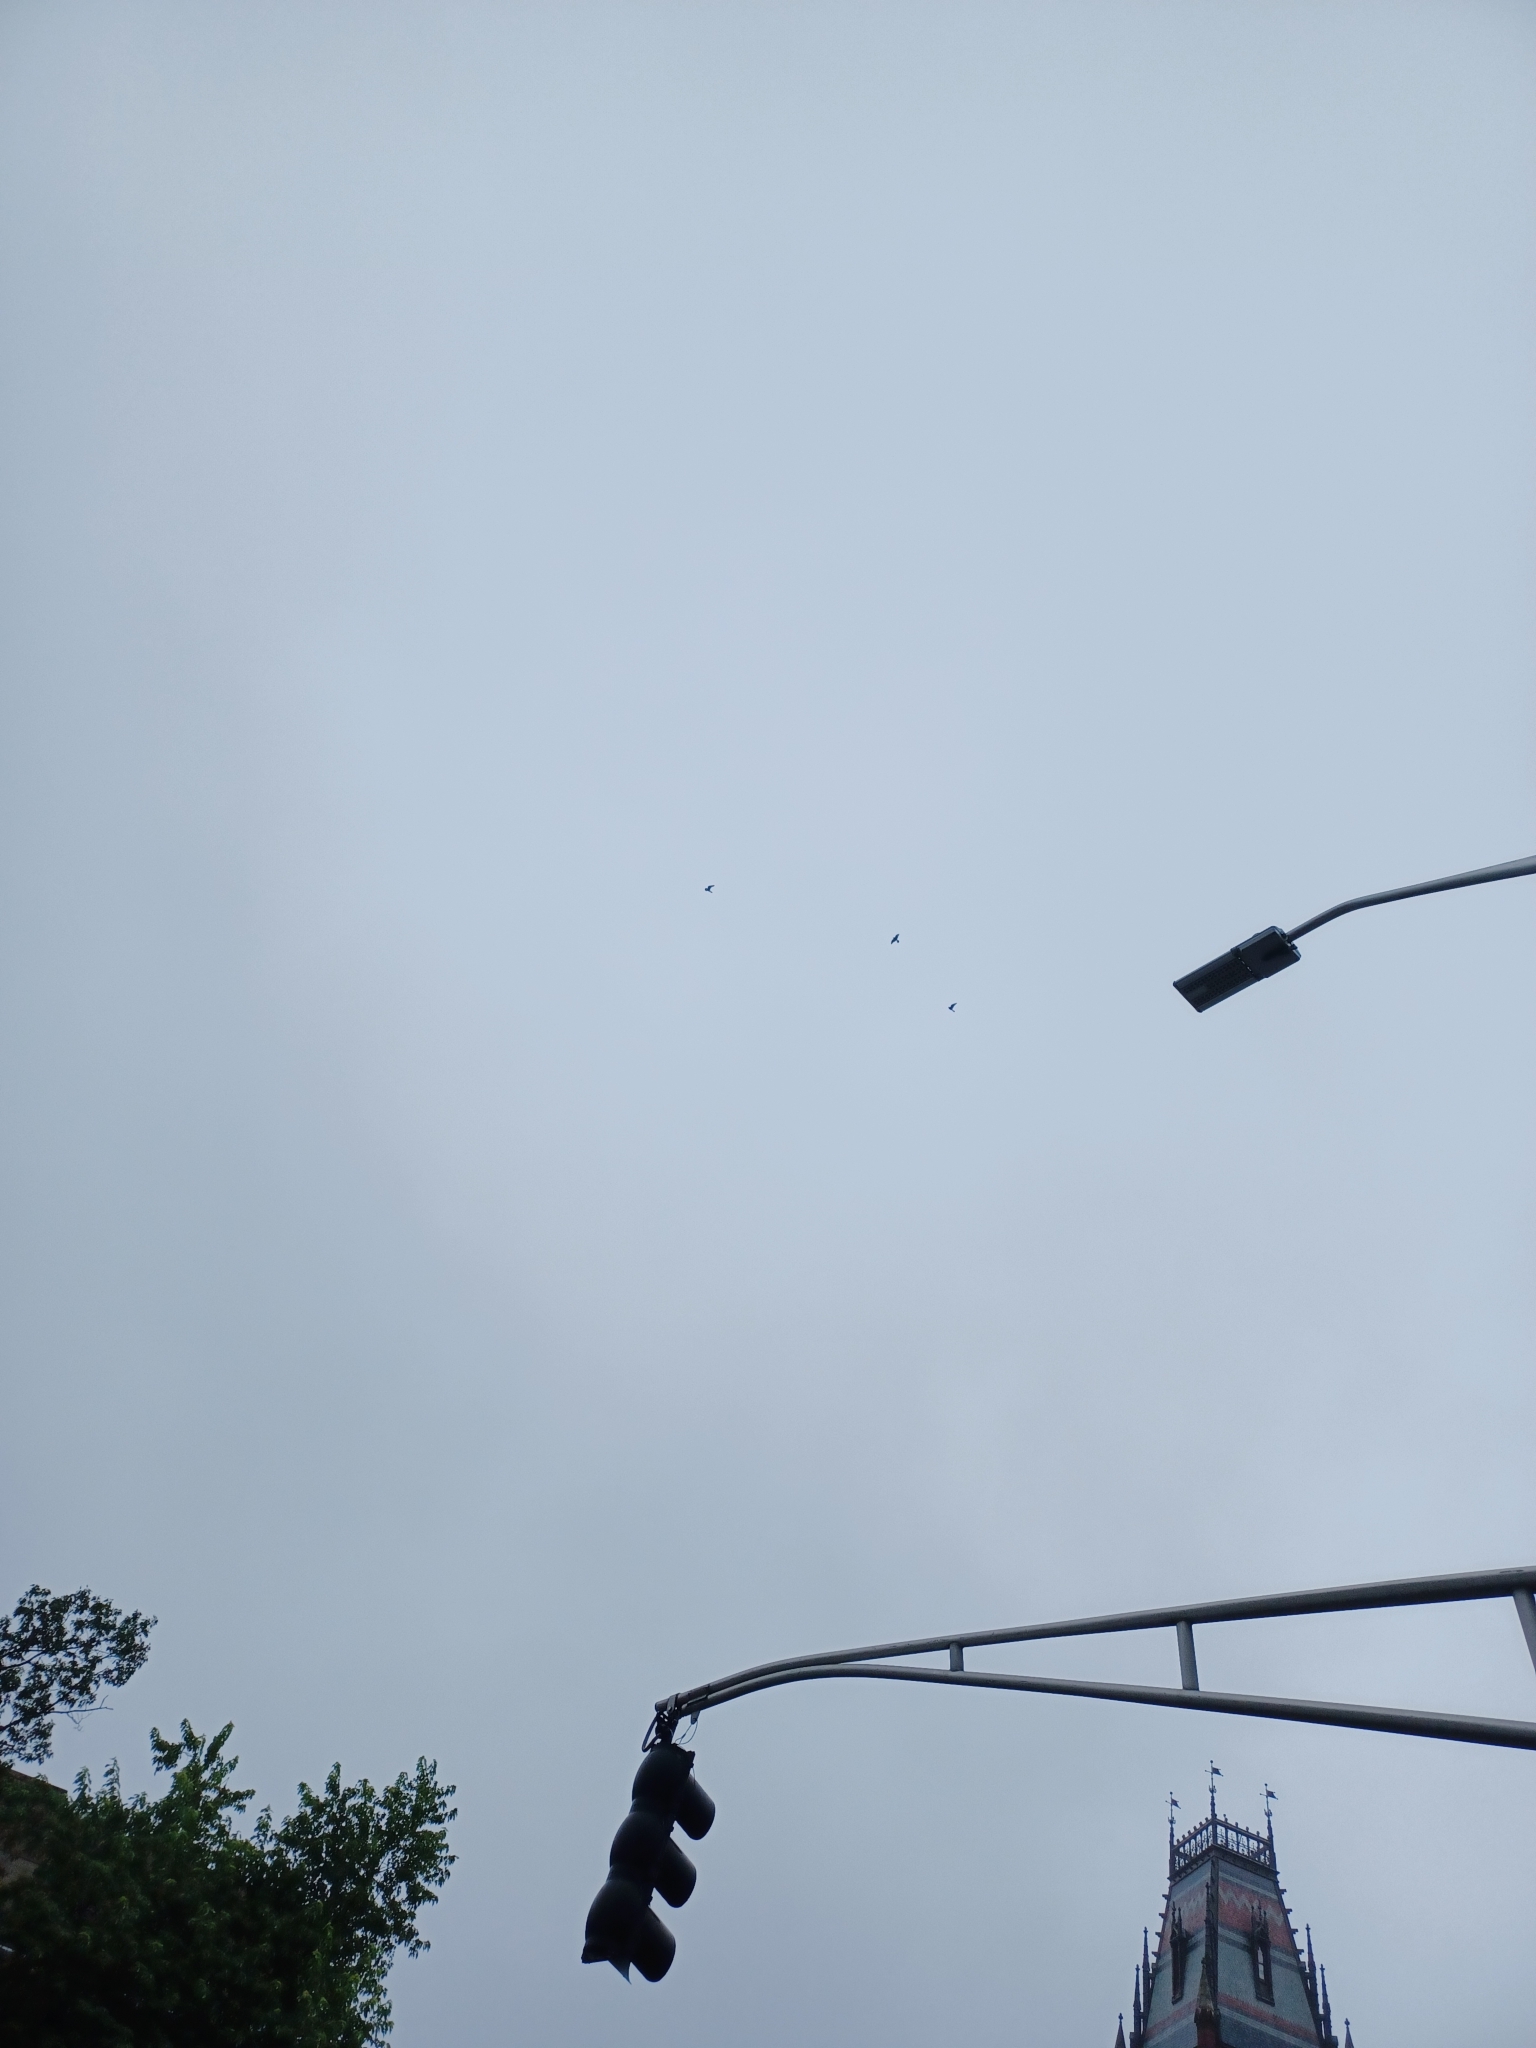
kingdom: Animalia
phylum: Chordata
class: Aves
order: Falconiformes
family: Falconidae
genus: Falco
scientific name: Falco peregrinus
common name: Peregrine falcon
